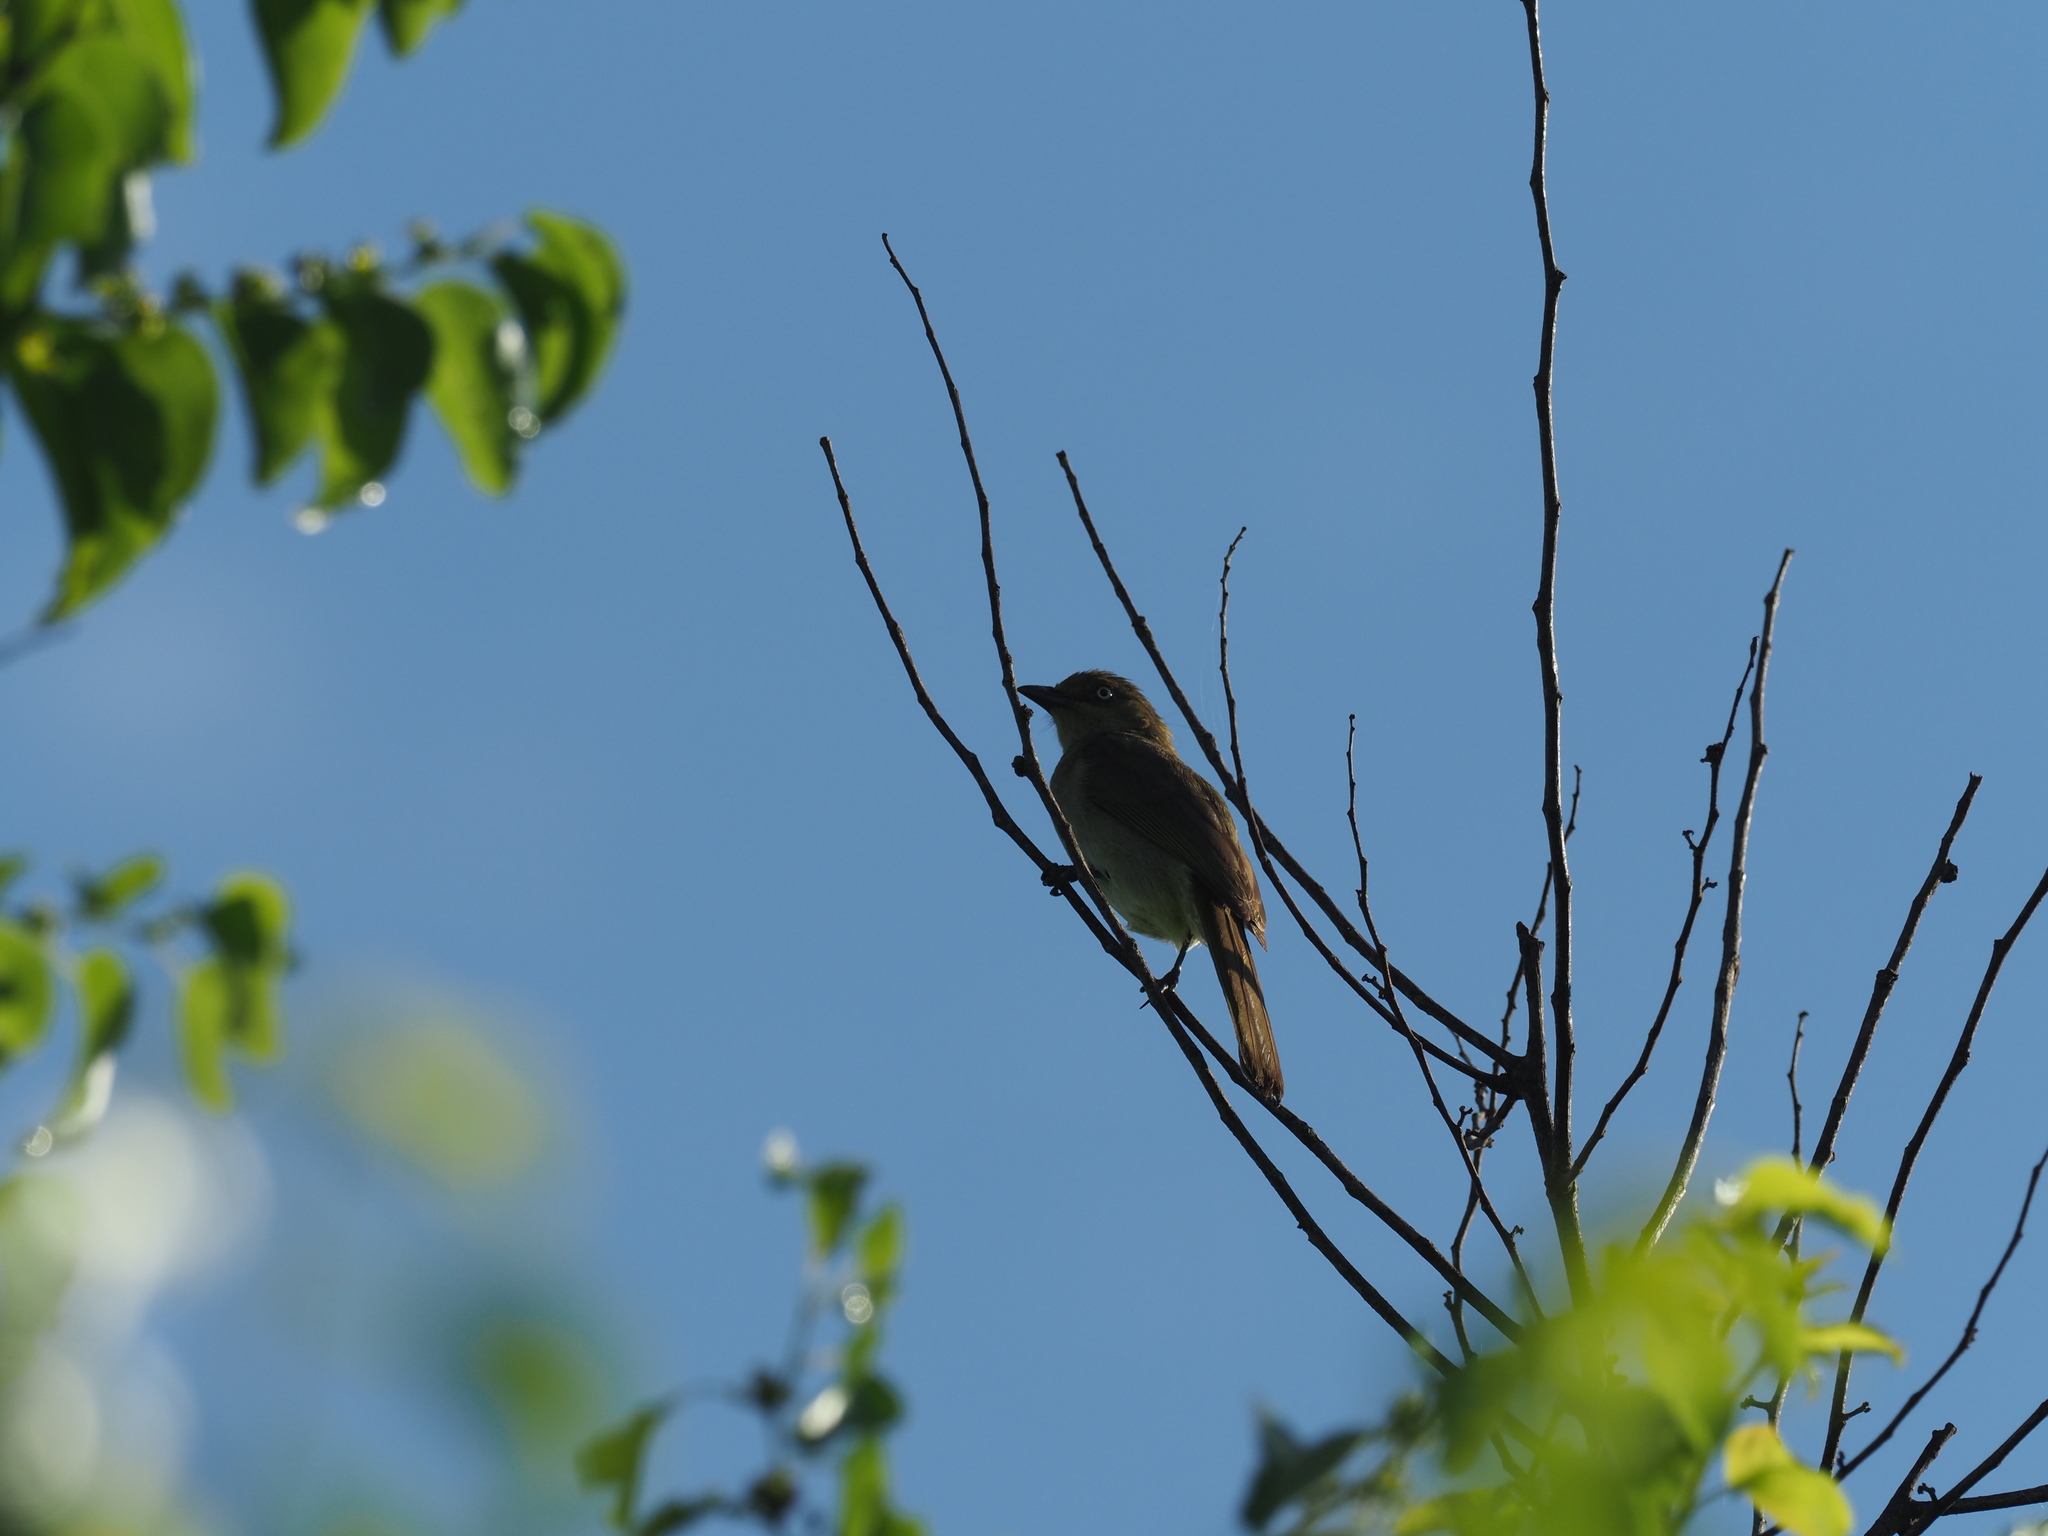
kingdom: Animalia
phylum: Chordata
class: Aves
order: Passeriformes
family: Pycnonotidae
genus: Andropadus
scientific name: Andropadus importunus
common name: Sombre greenbul
